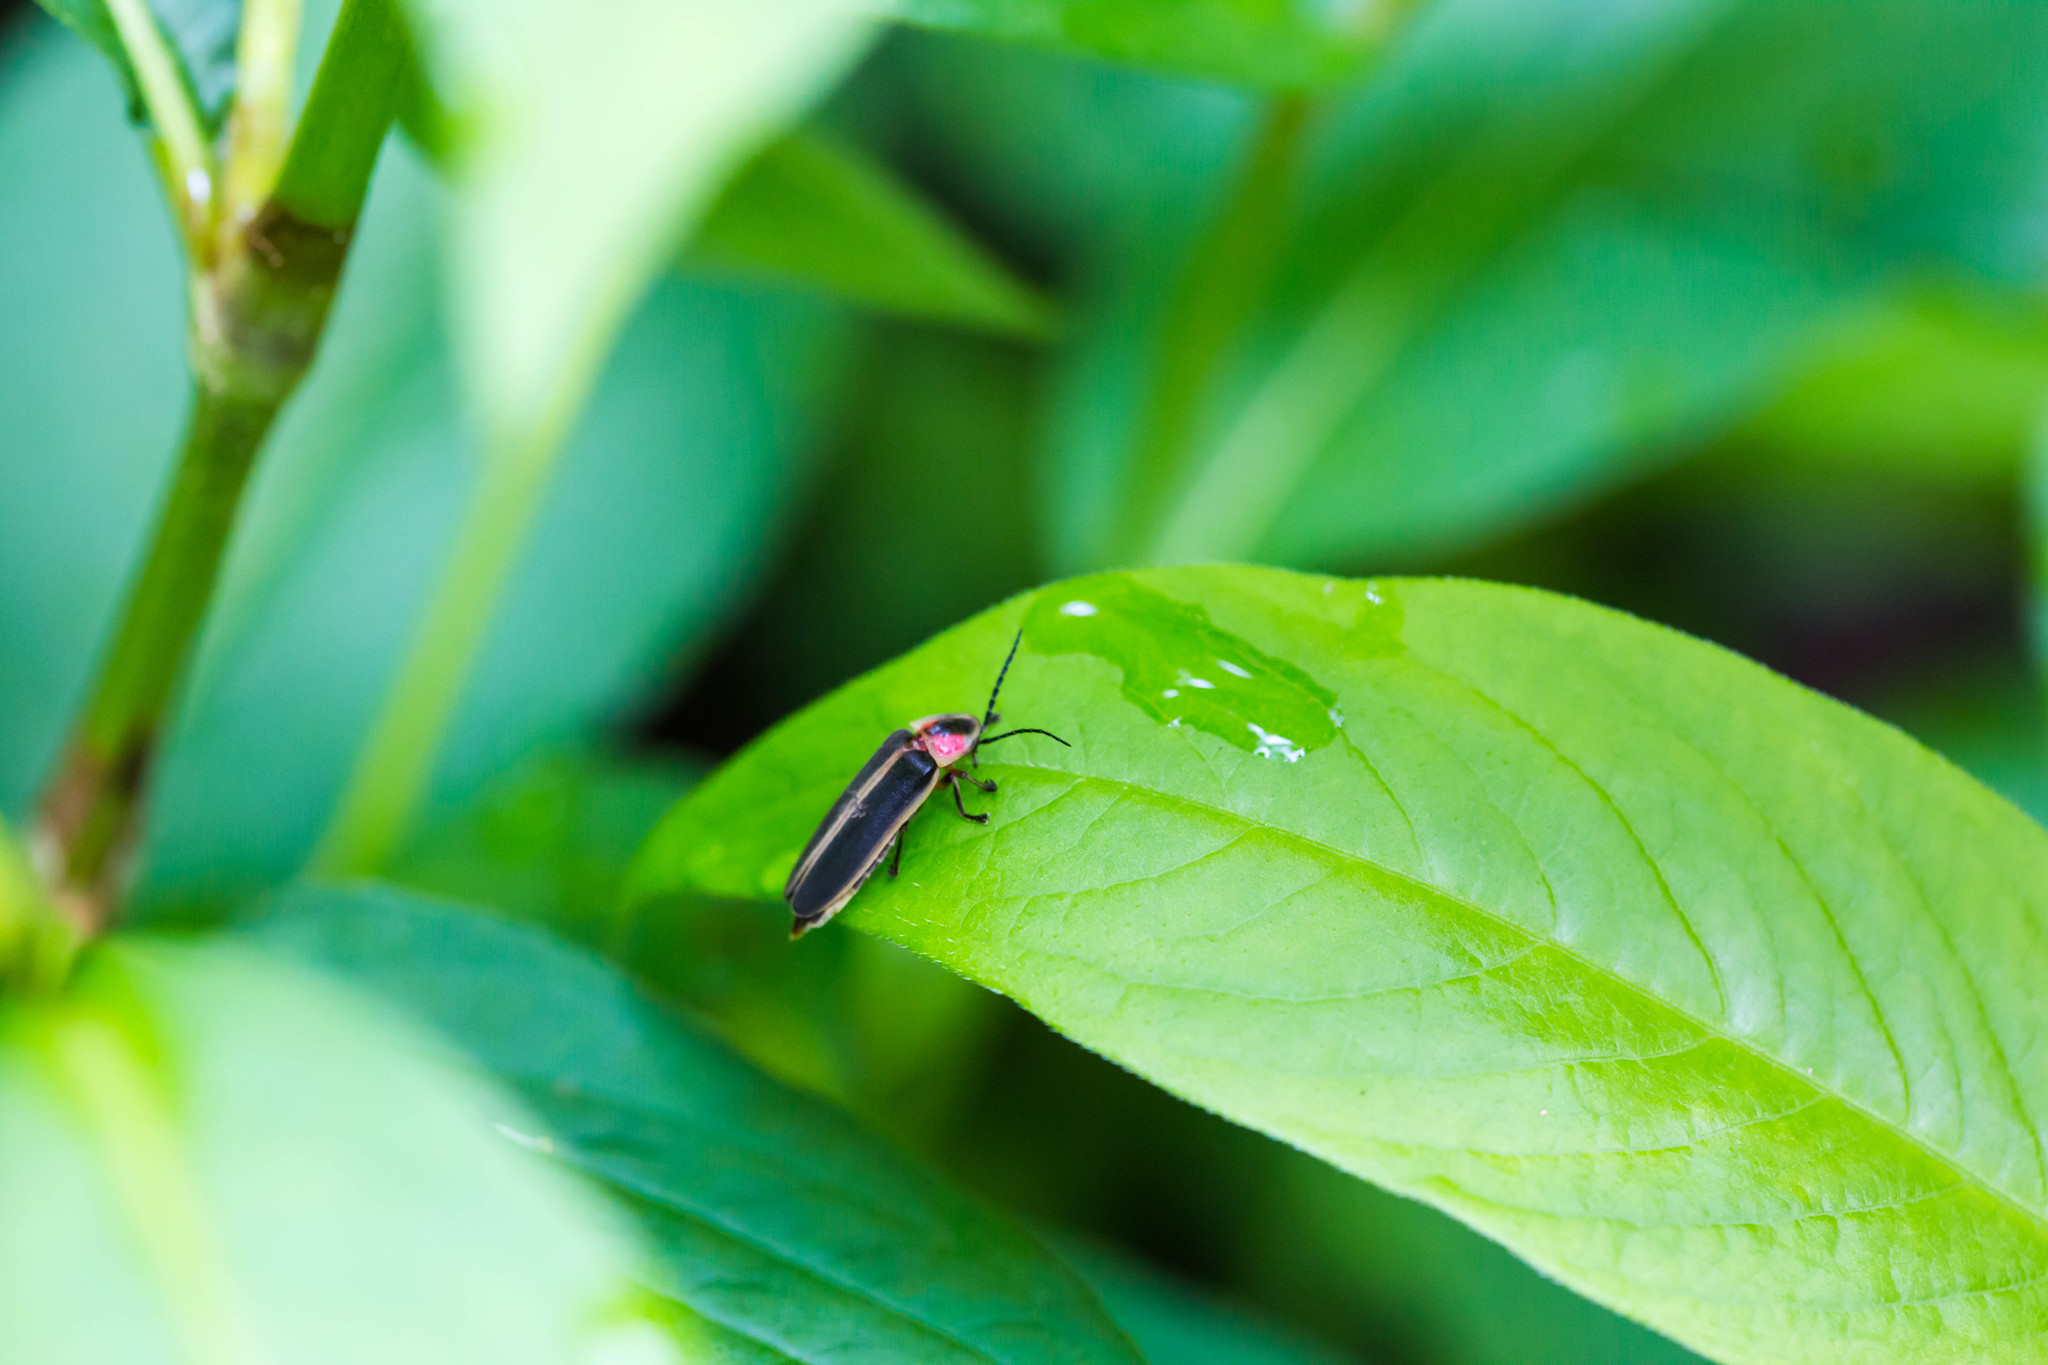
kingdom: Animalia
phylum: Arthropoda
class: Insecta
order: Coleoptera
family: Lampyridae
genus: Photinus
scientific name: Photinus pyralis
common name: Big dipper firefly
